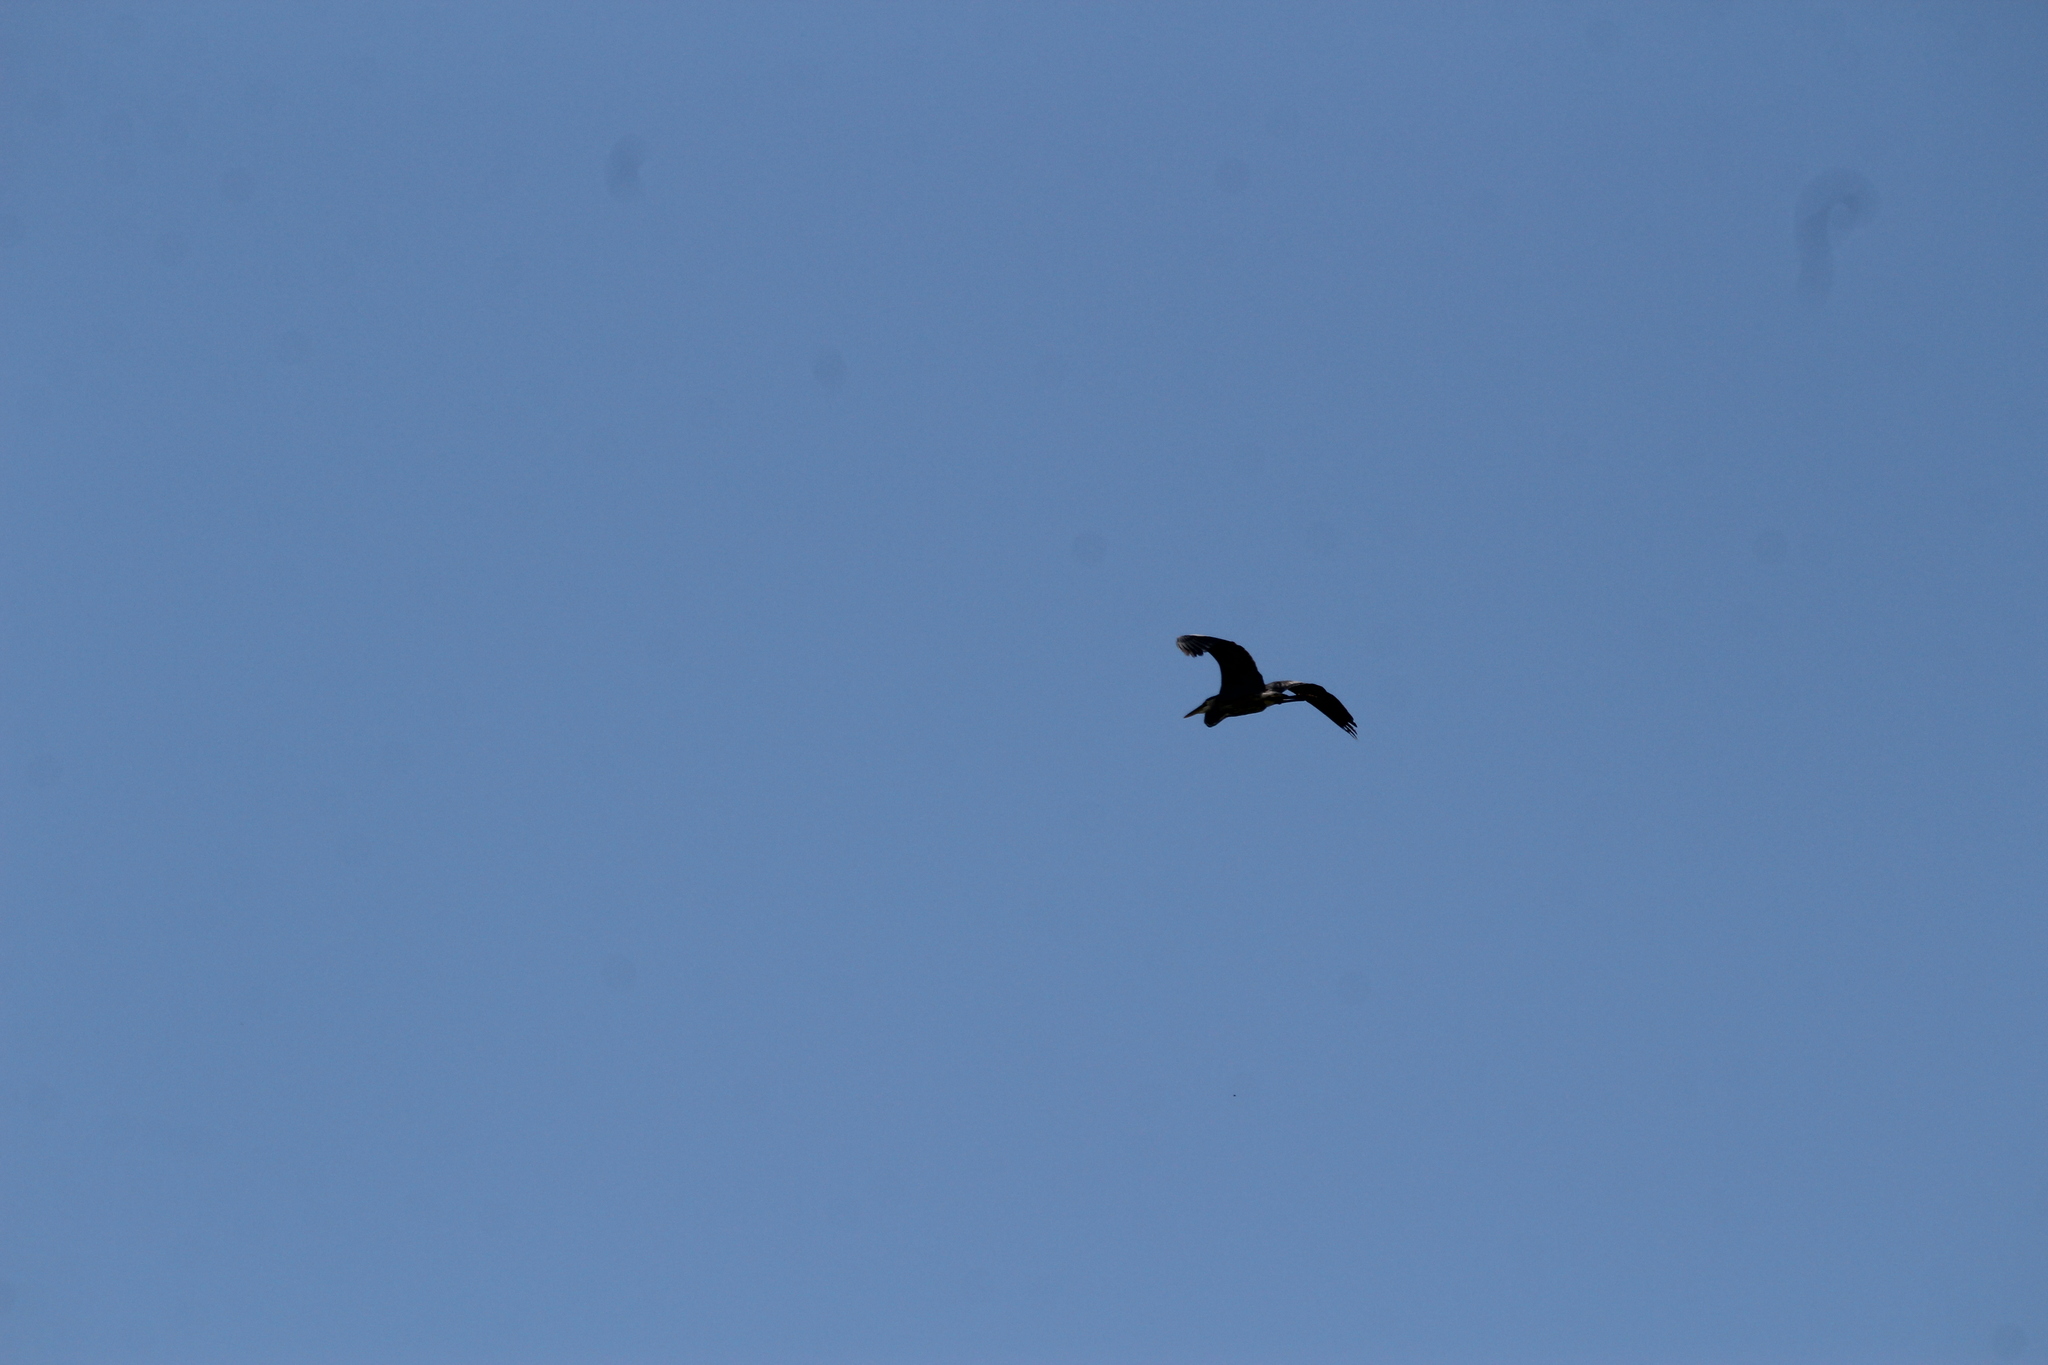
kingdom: Animalia
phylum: Chordata
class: Aves
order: Pelecaniformes
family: Ardeidae
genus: Ardea
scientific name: Ardea herodias
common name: Great blue heron
